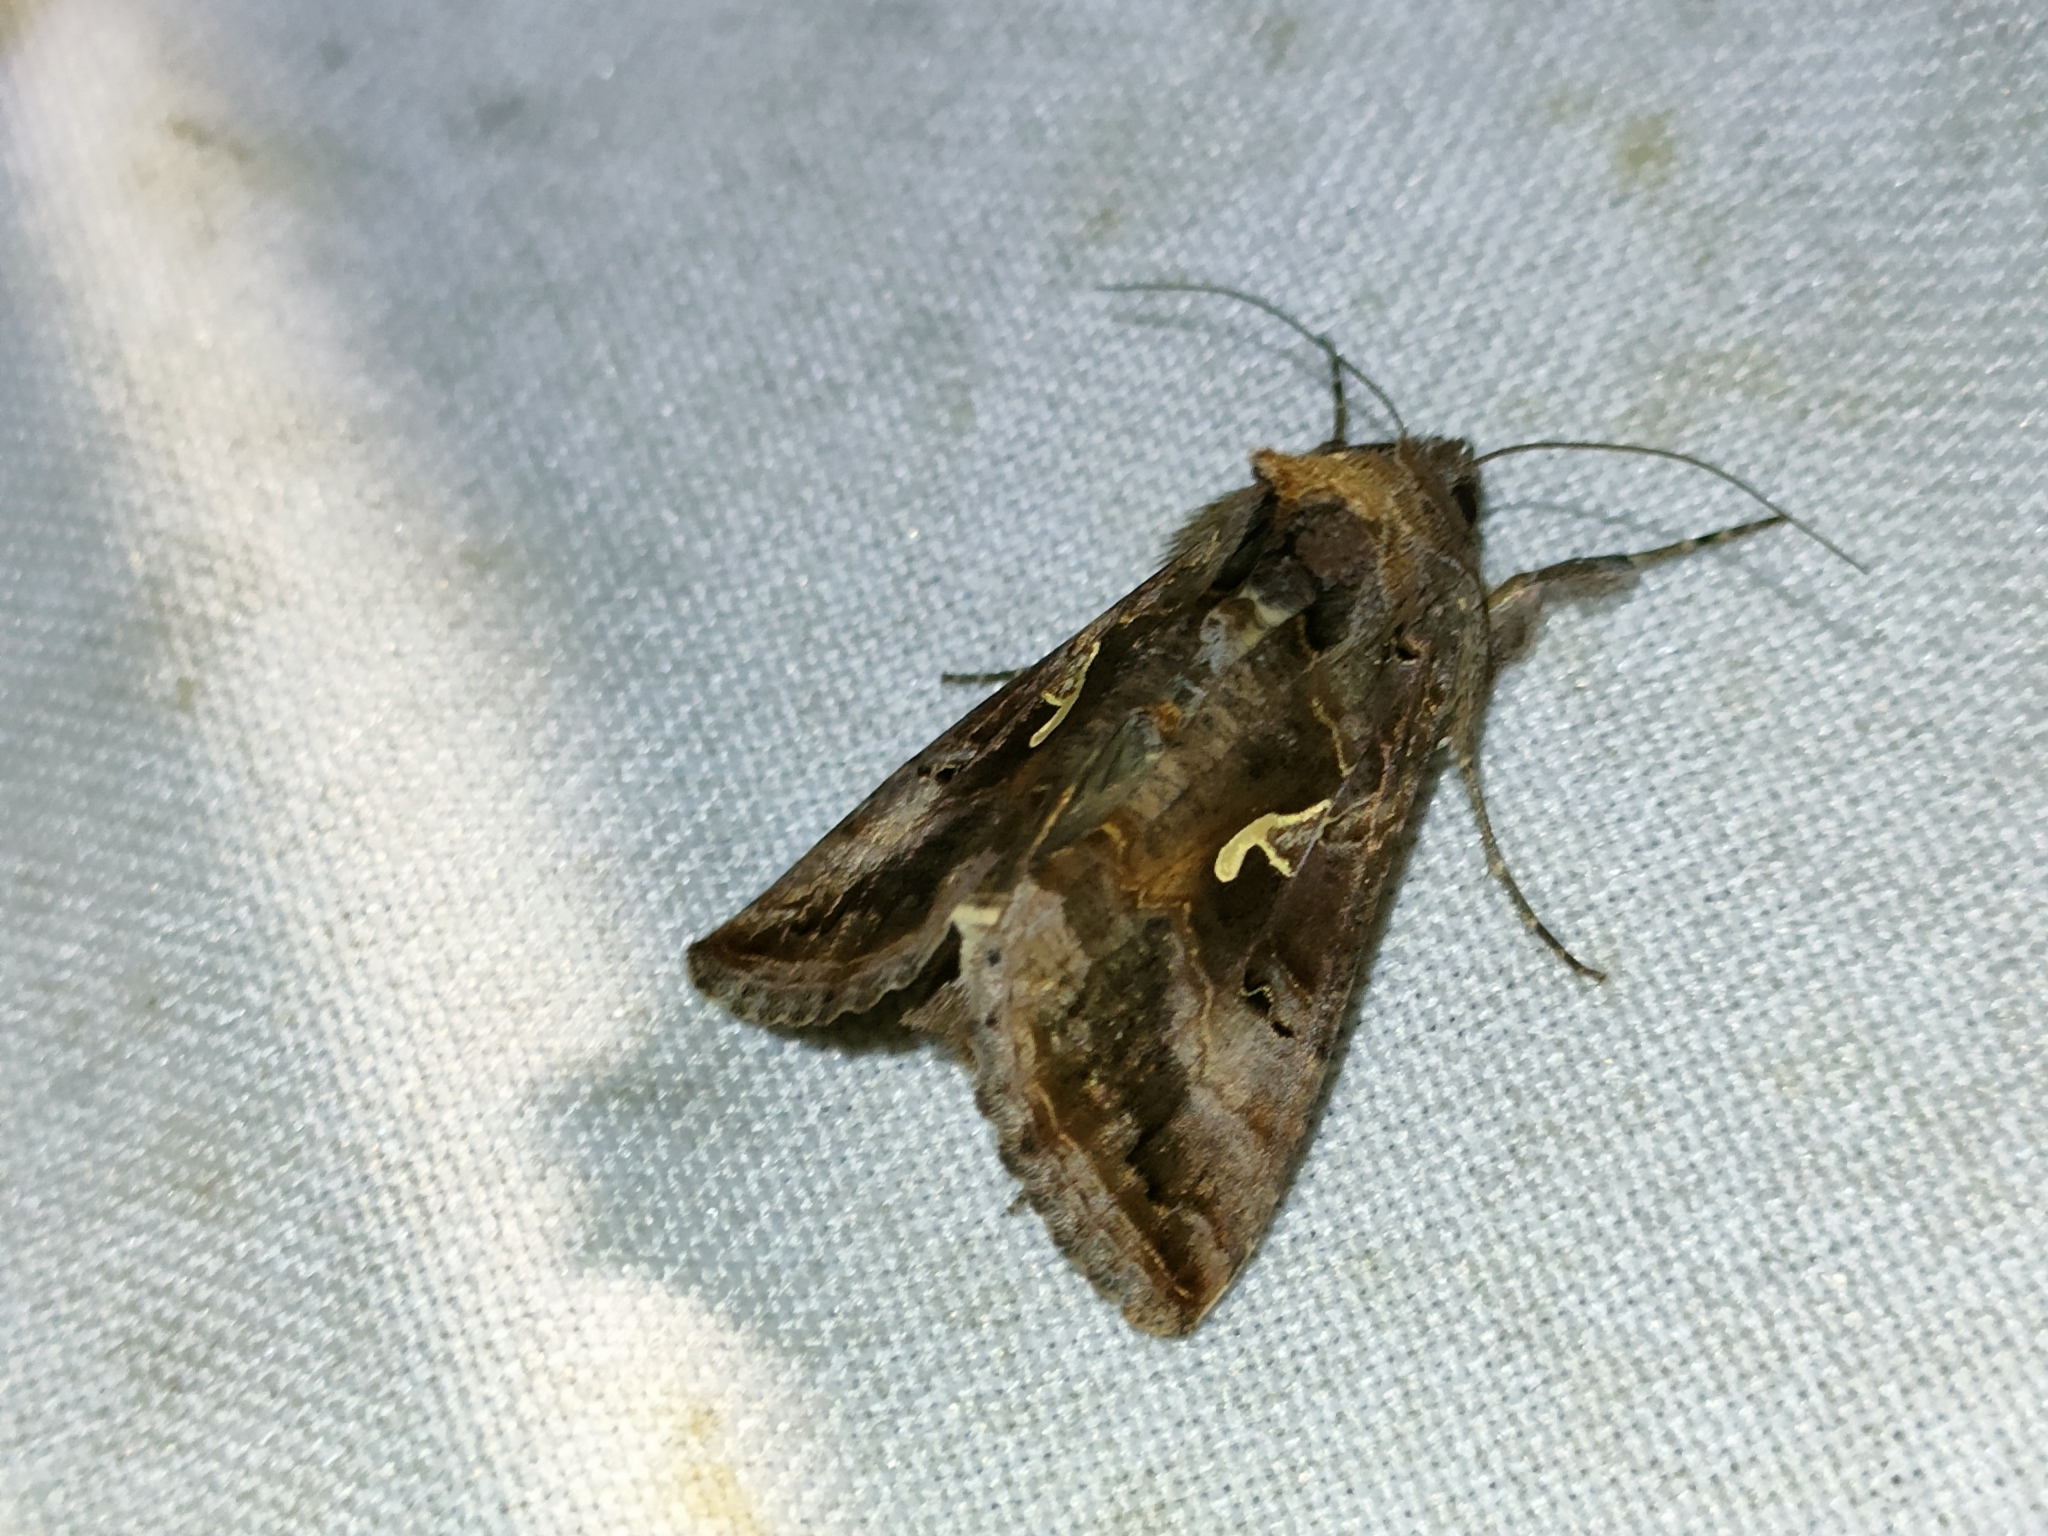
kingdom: Animalia
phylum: Arthropoda
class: Insecta
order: Lepidoptera
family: Noctuidae
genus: Autographa
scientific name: Autographa gamma
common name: Silver y
